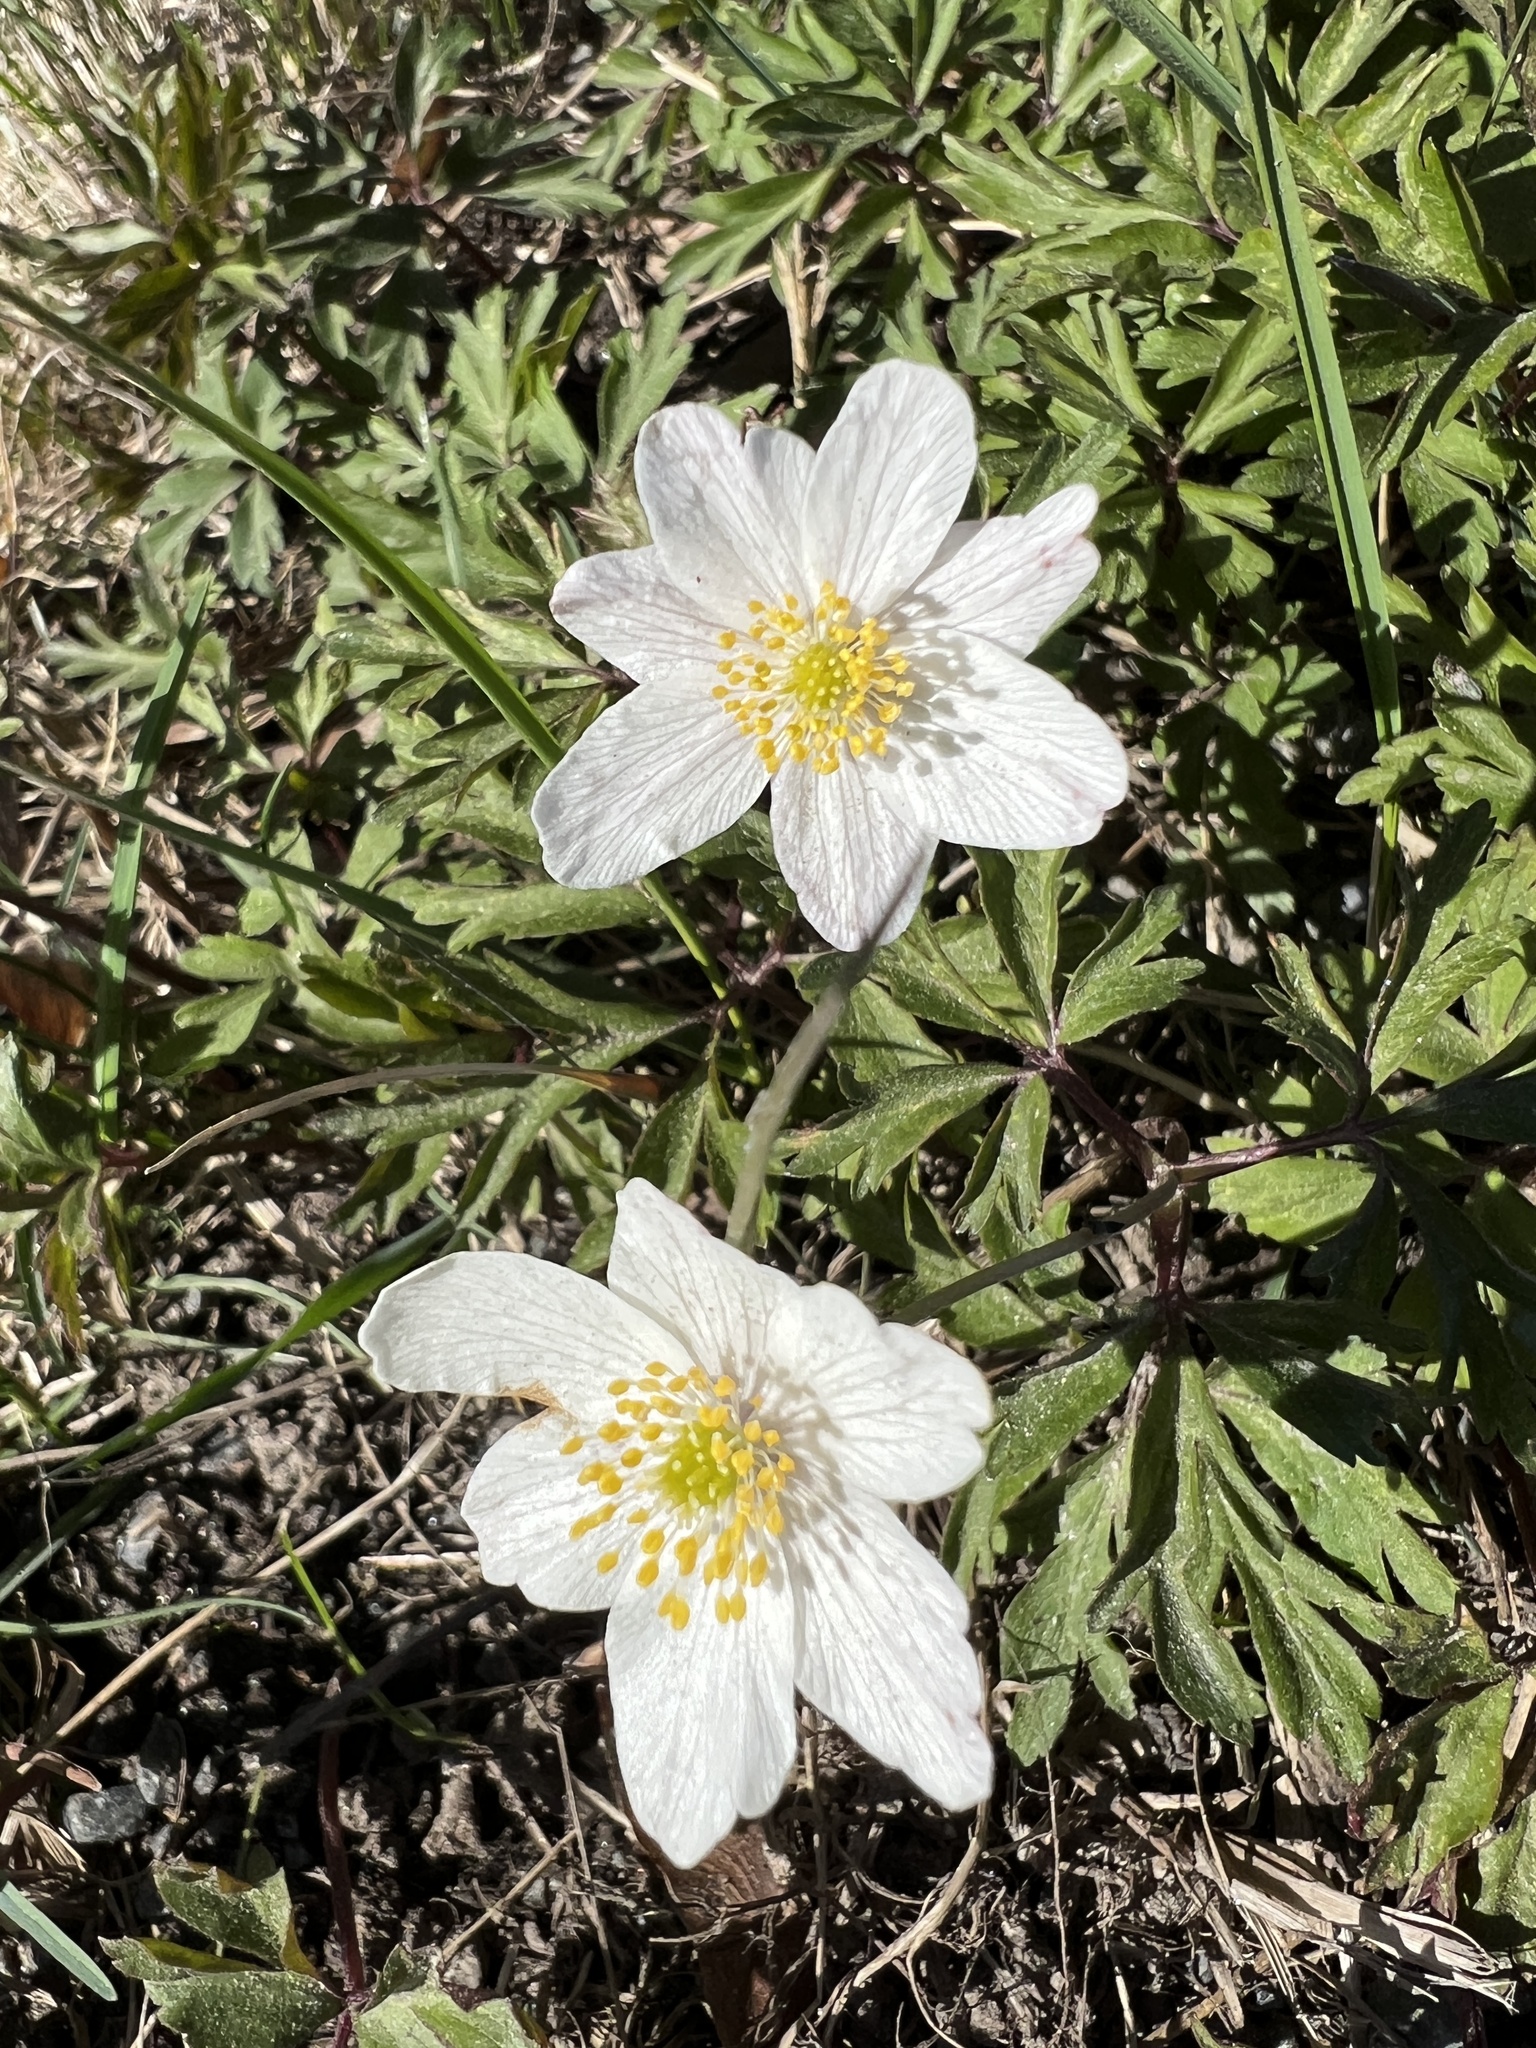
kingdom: Plantae
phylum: Tracheophyta
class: Magnoliopsida
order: Ranunculales
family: Ranunculaceae
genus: Anemone
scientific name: Anemone nemorosa
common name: Wood anemone
